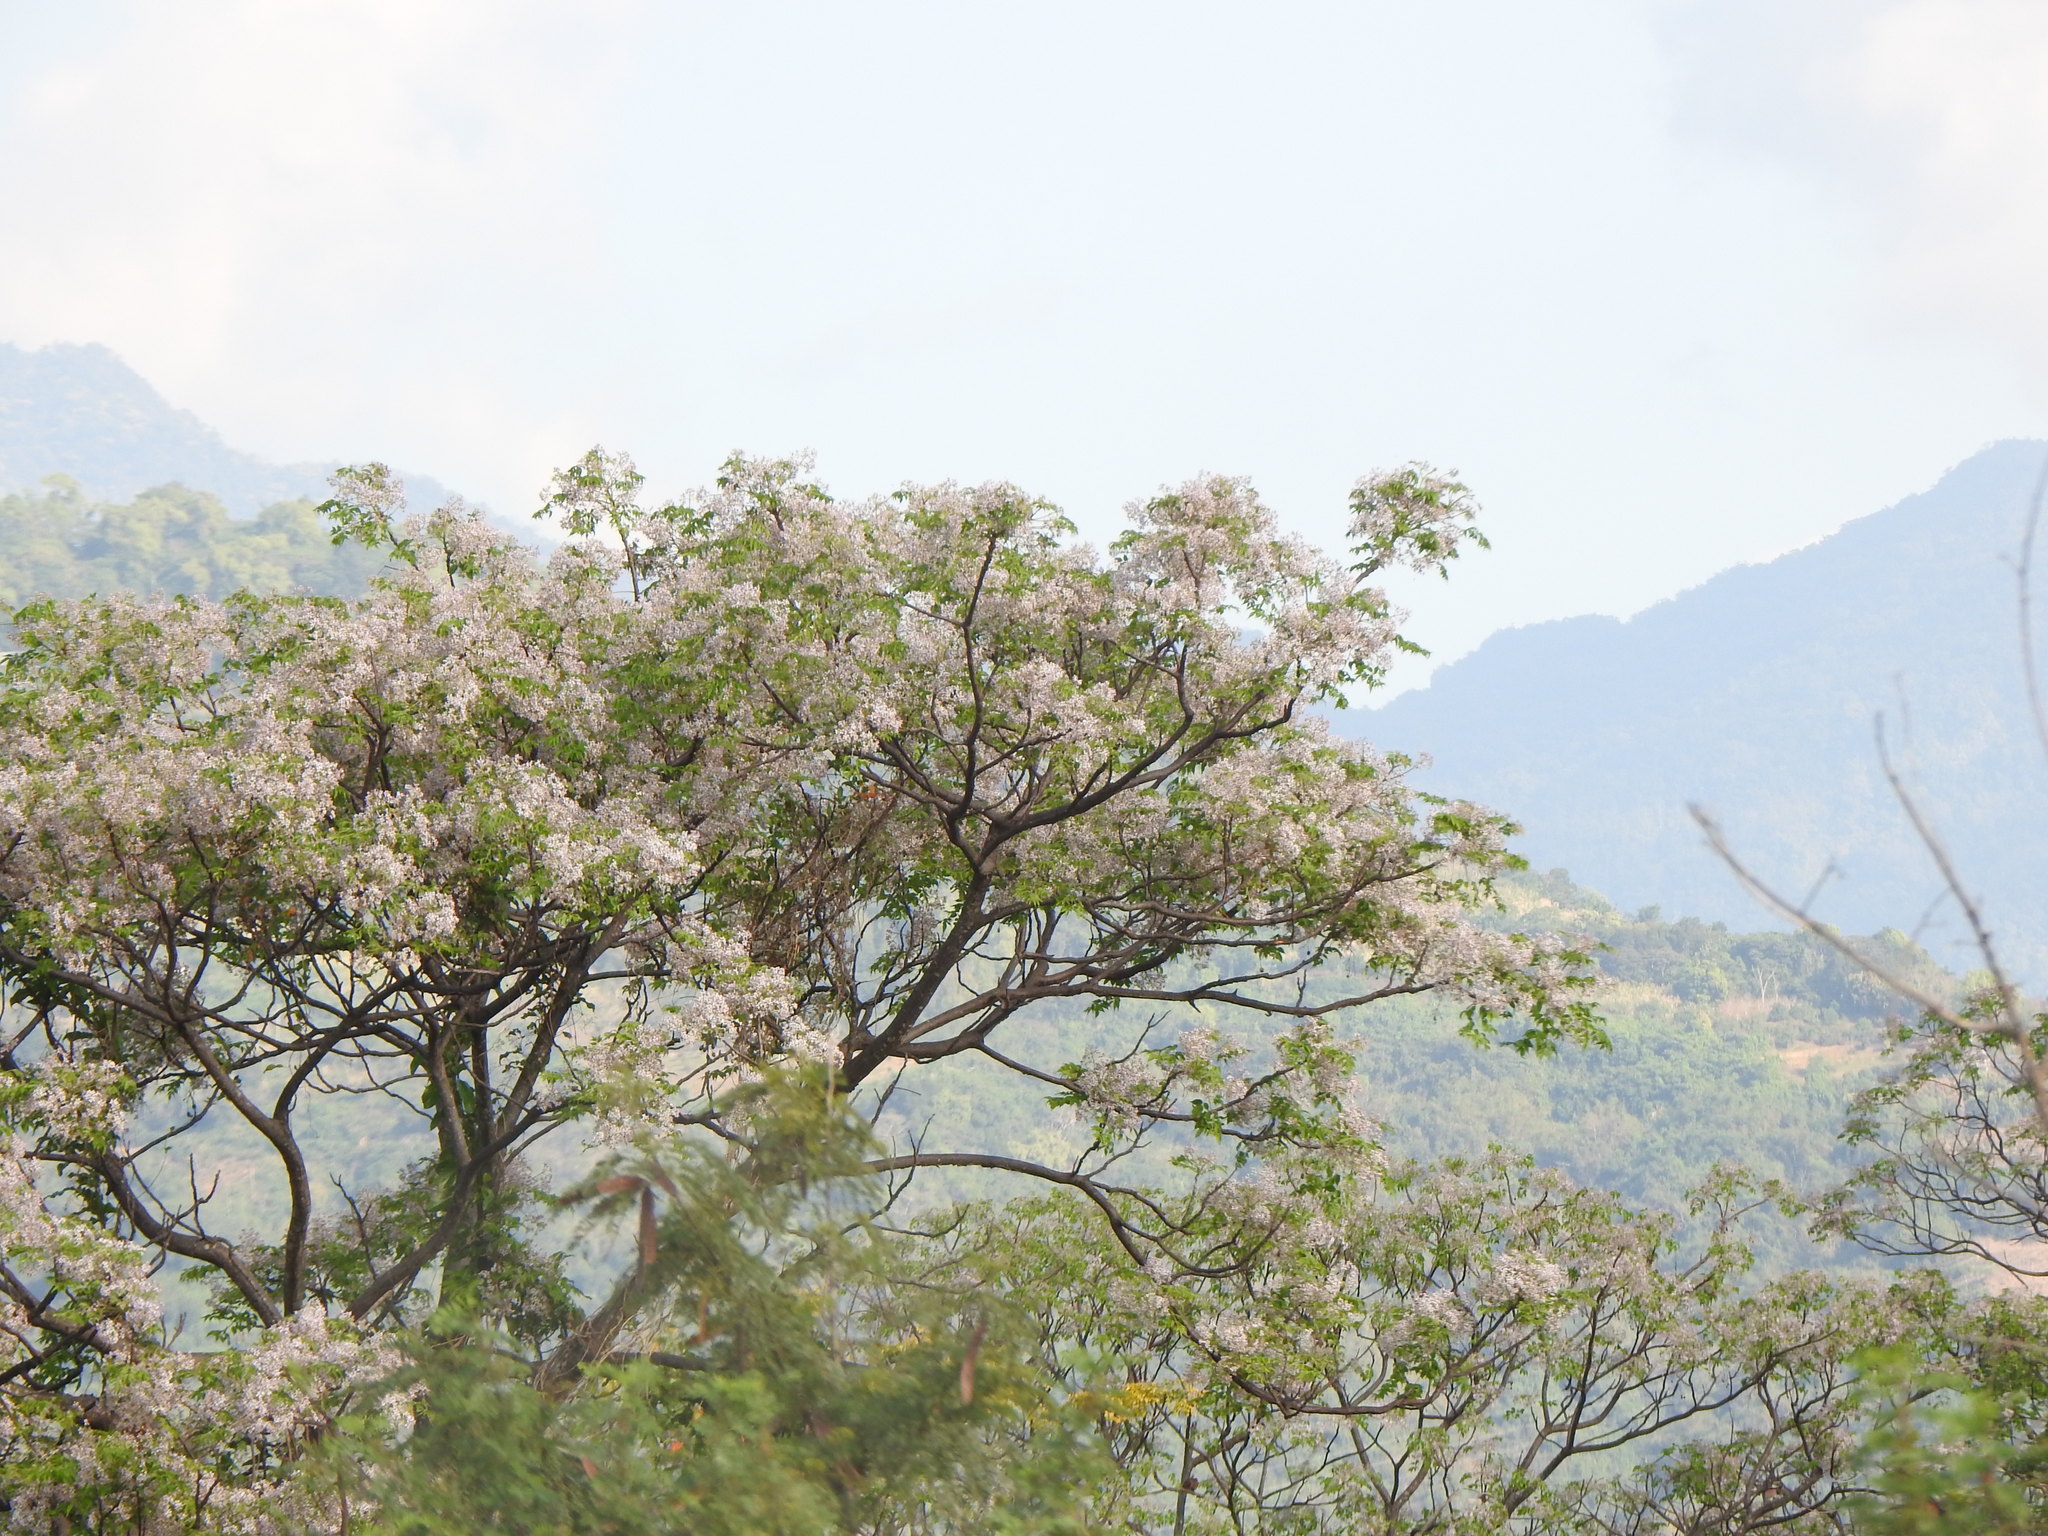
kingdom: Plantae
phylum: Tracheophyta
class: Magnoliopsida
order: Sapindales
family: Meliaceae
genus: Melia
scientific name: Melia azedarach
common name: Chinaberrytree
